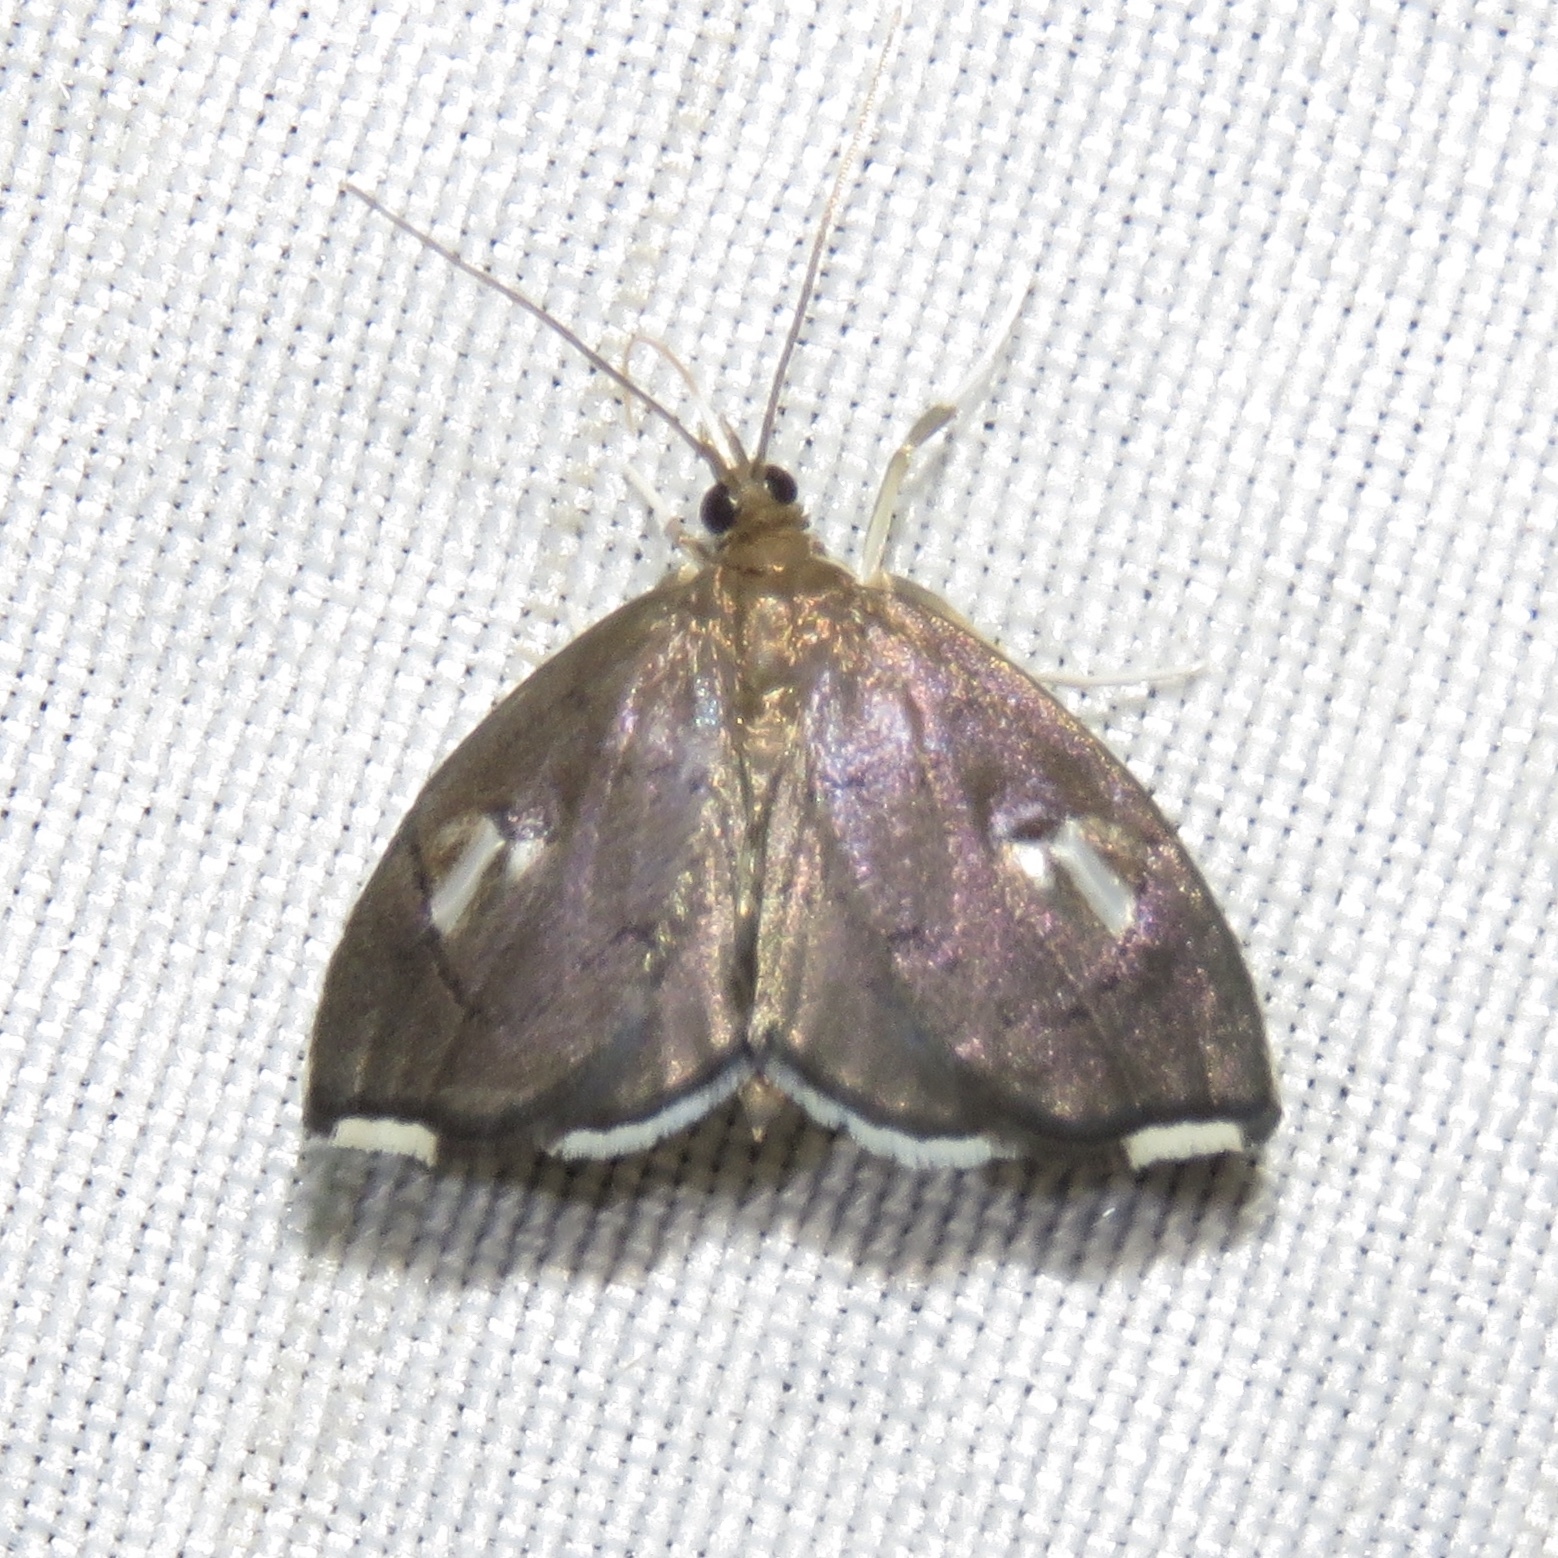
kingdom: Animalia
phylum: Arthropoda
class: Insecta
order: Lepidoptera
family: Crambidae
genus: Perispasta
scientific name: Perispasta caeculalis
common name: Titian peale's moth
